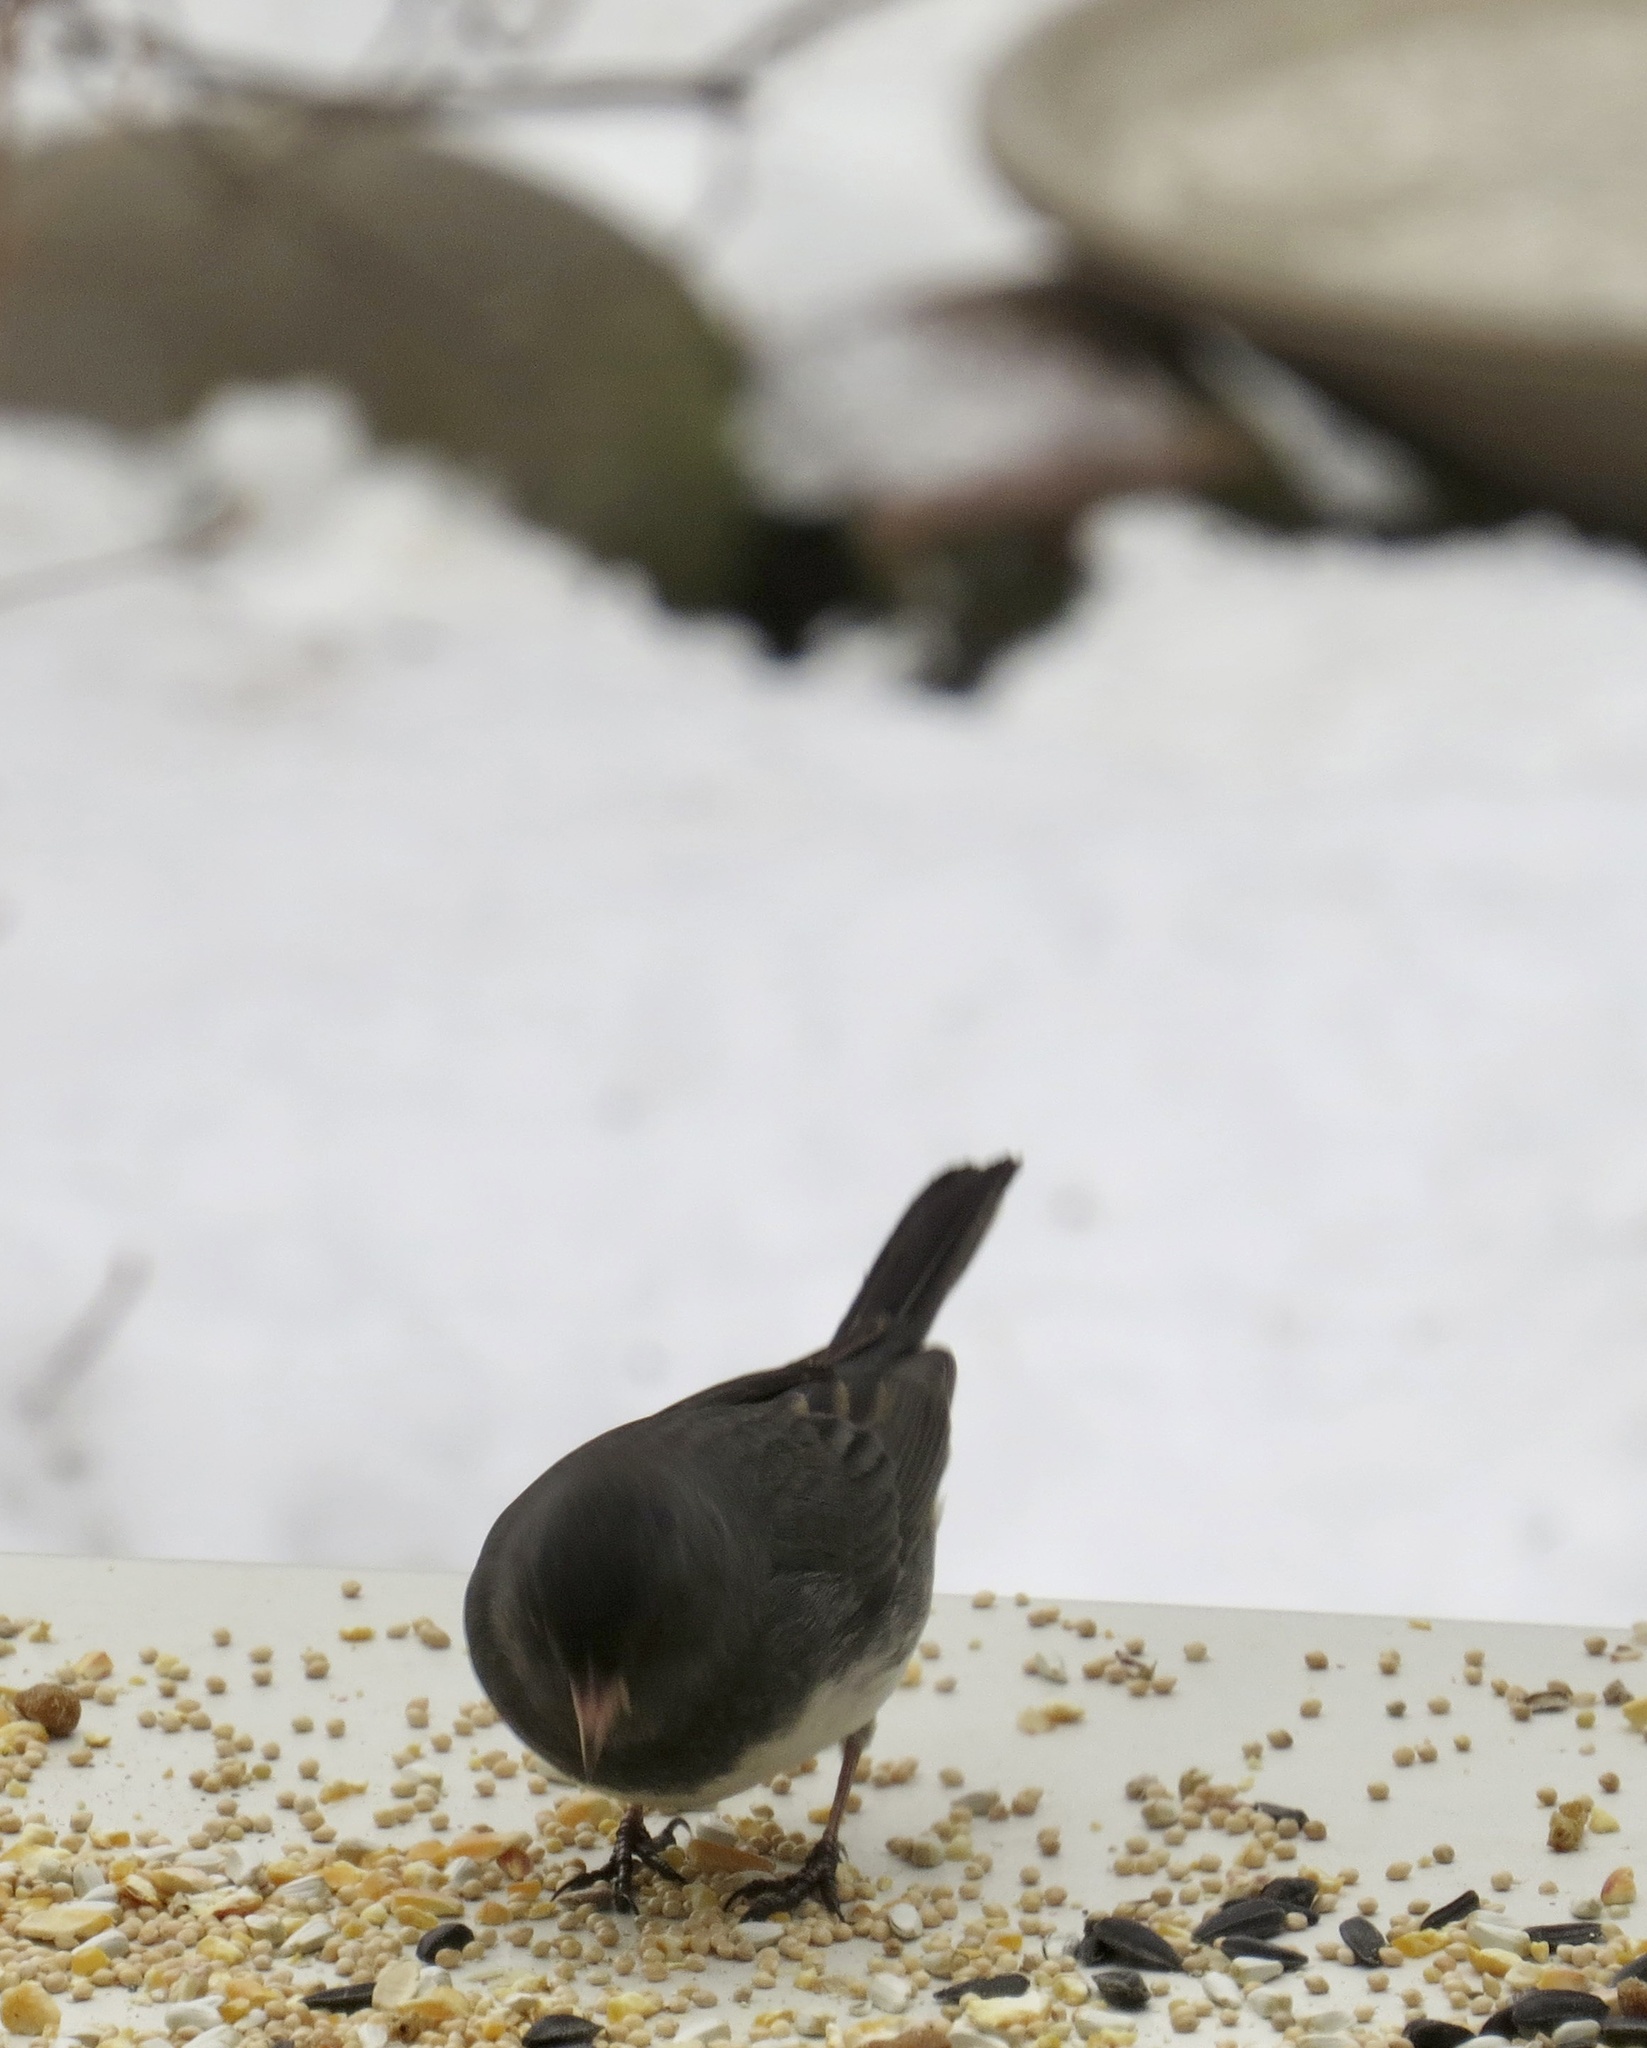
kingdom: Animalia
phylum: Chordata
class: Aves
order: Passeriformes
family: Passerellidae
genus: Junco
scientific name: Junco hyemalis
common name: Dark-eyed junco
